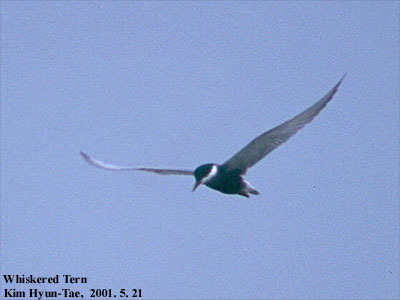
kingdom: Animalia
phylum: Chordata
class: Aves
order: Charadriiformes
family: Laridae
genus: Chlidonias
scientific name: Chlidonias hybrida
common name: Whiskered tern
